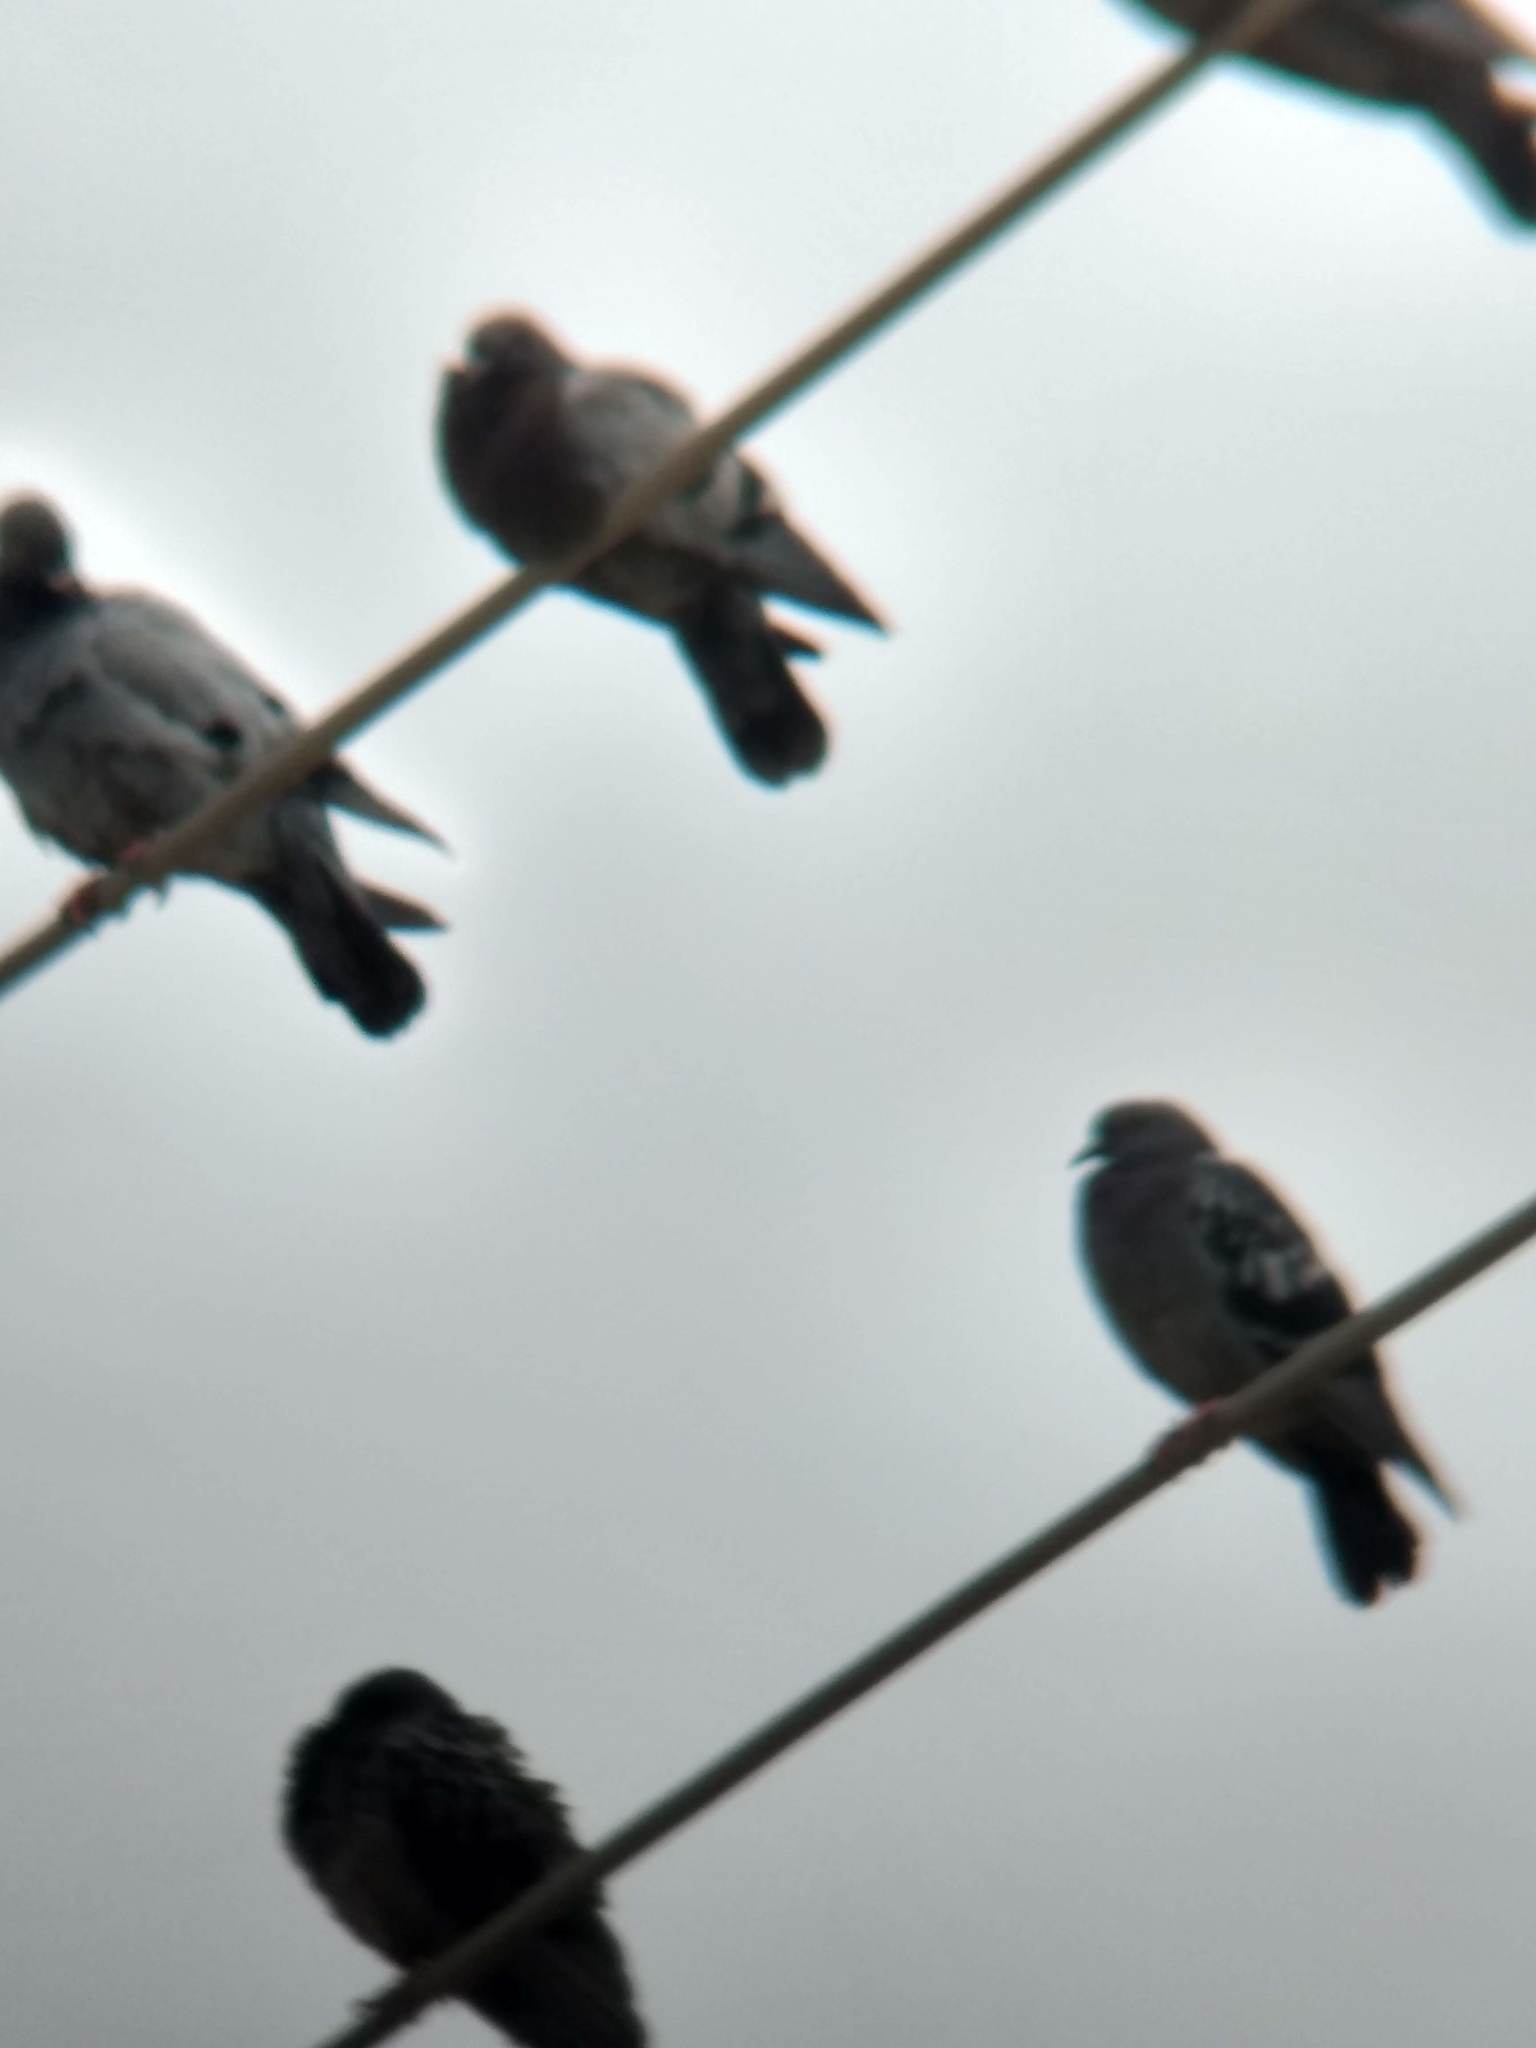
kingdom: Animalia
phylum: Chordata
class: Aves
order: Columbiformes
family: Columbidae
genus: Columba
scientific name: Columba livia
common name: Rock pigeon
